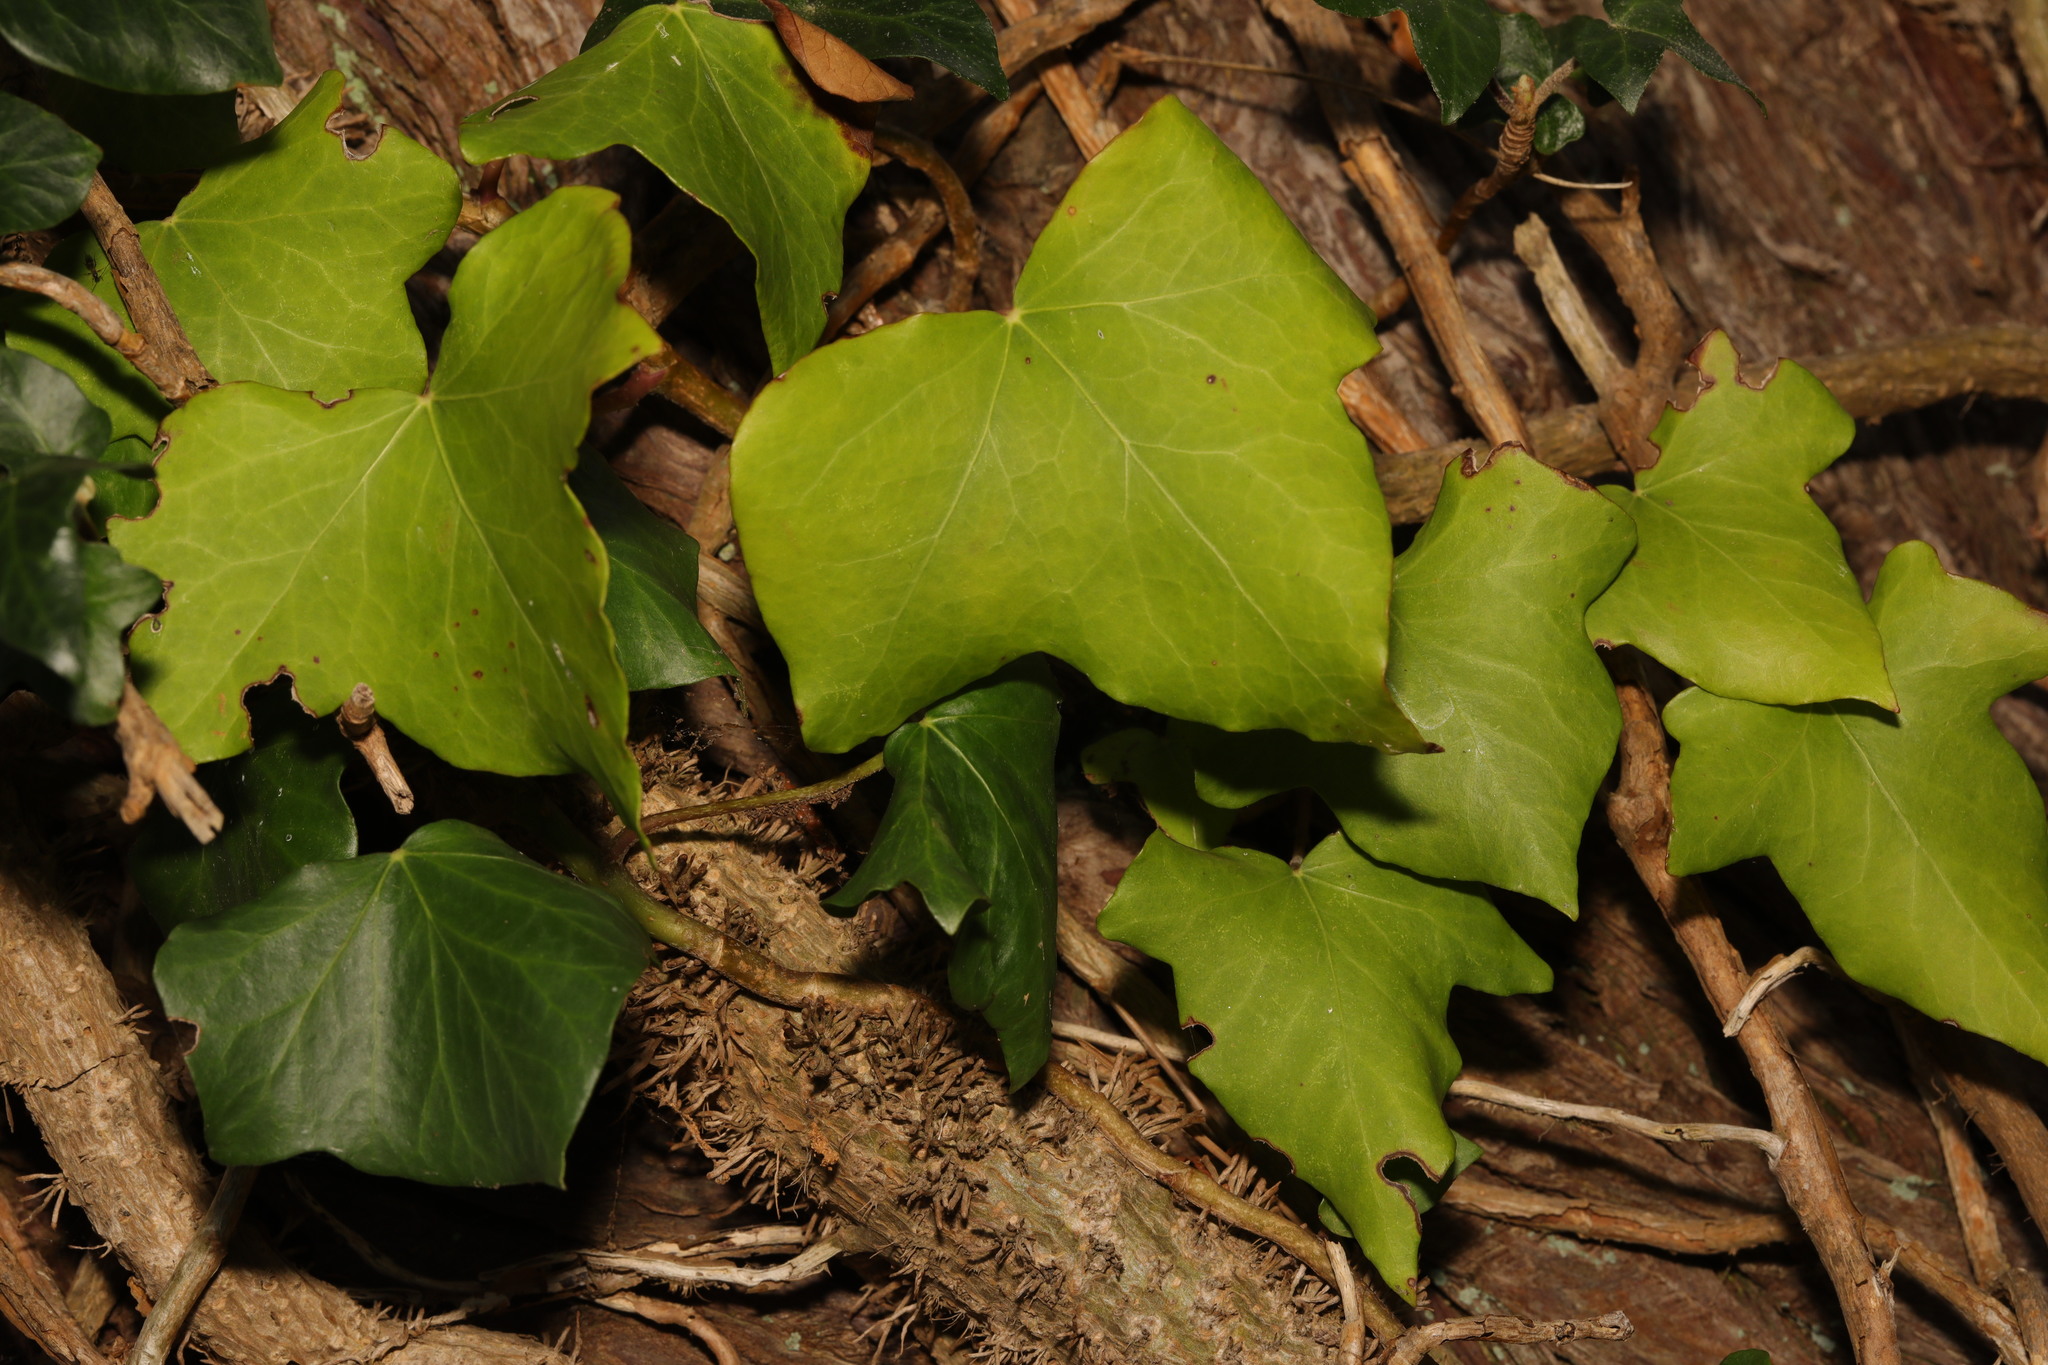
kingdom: Plantae
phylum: Tracheophyta
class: Magnoliopsida
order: Apiales
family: Araliaceae
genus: Hedera
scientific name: Hedera helix
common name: Ivy
